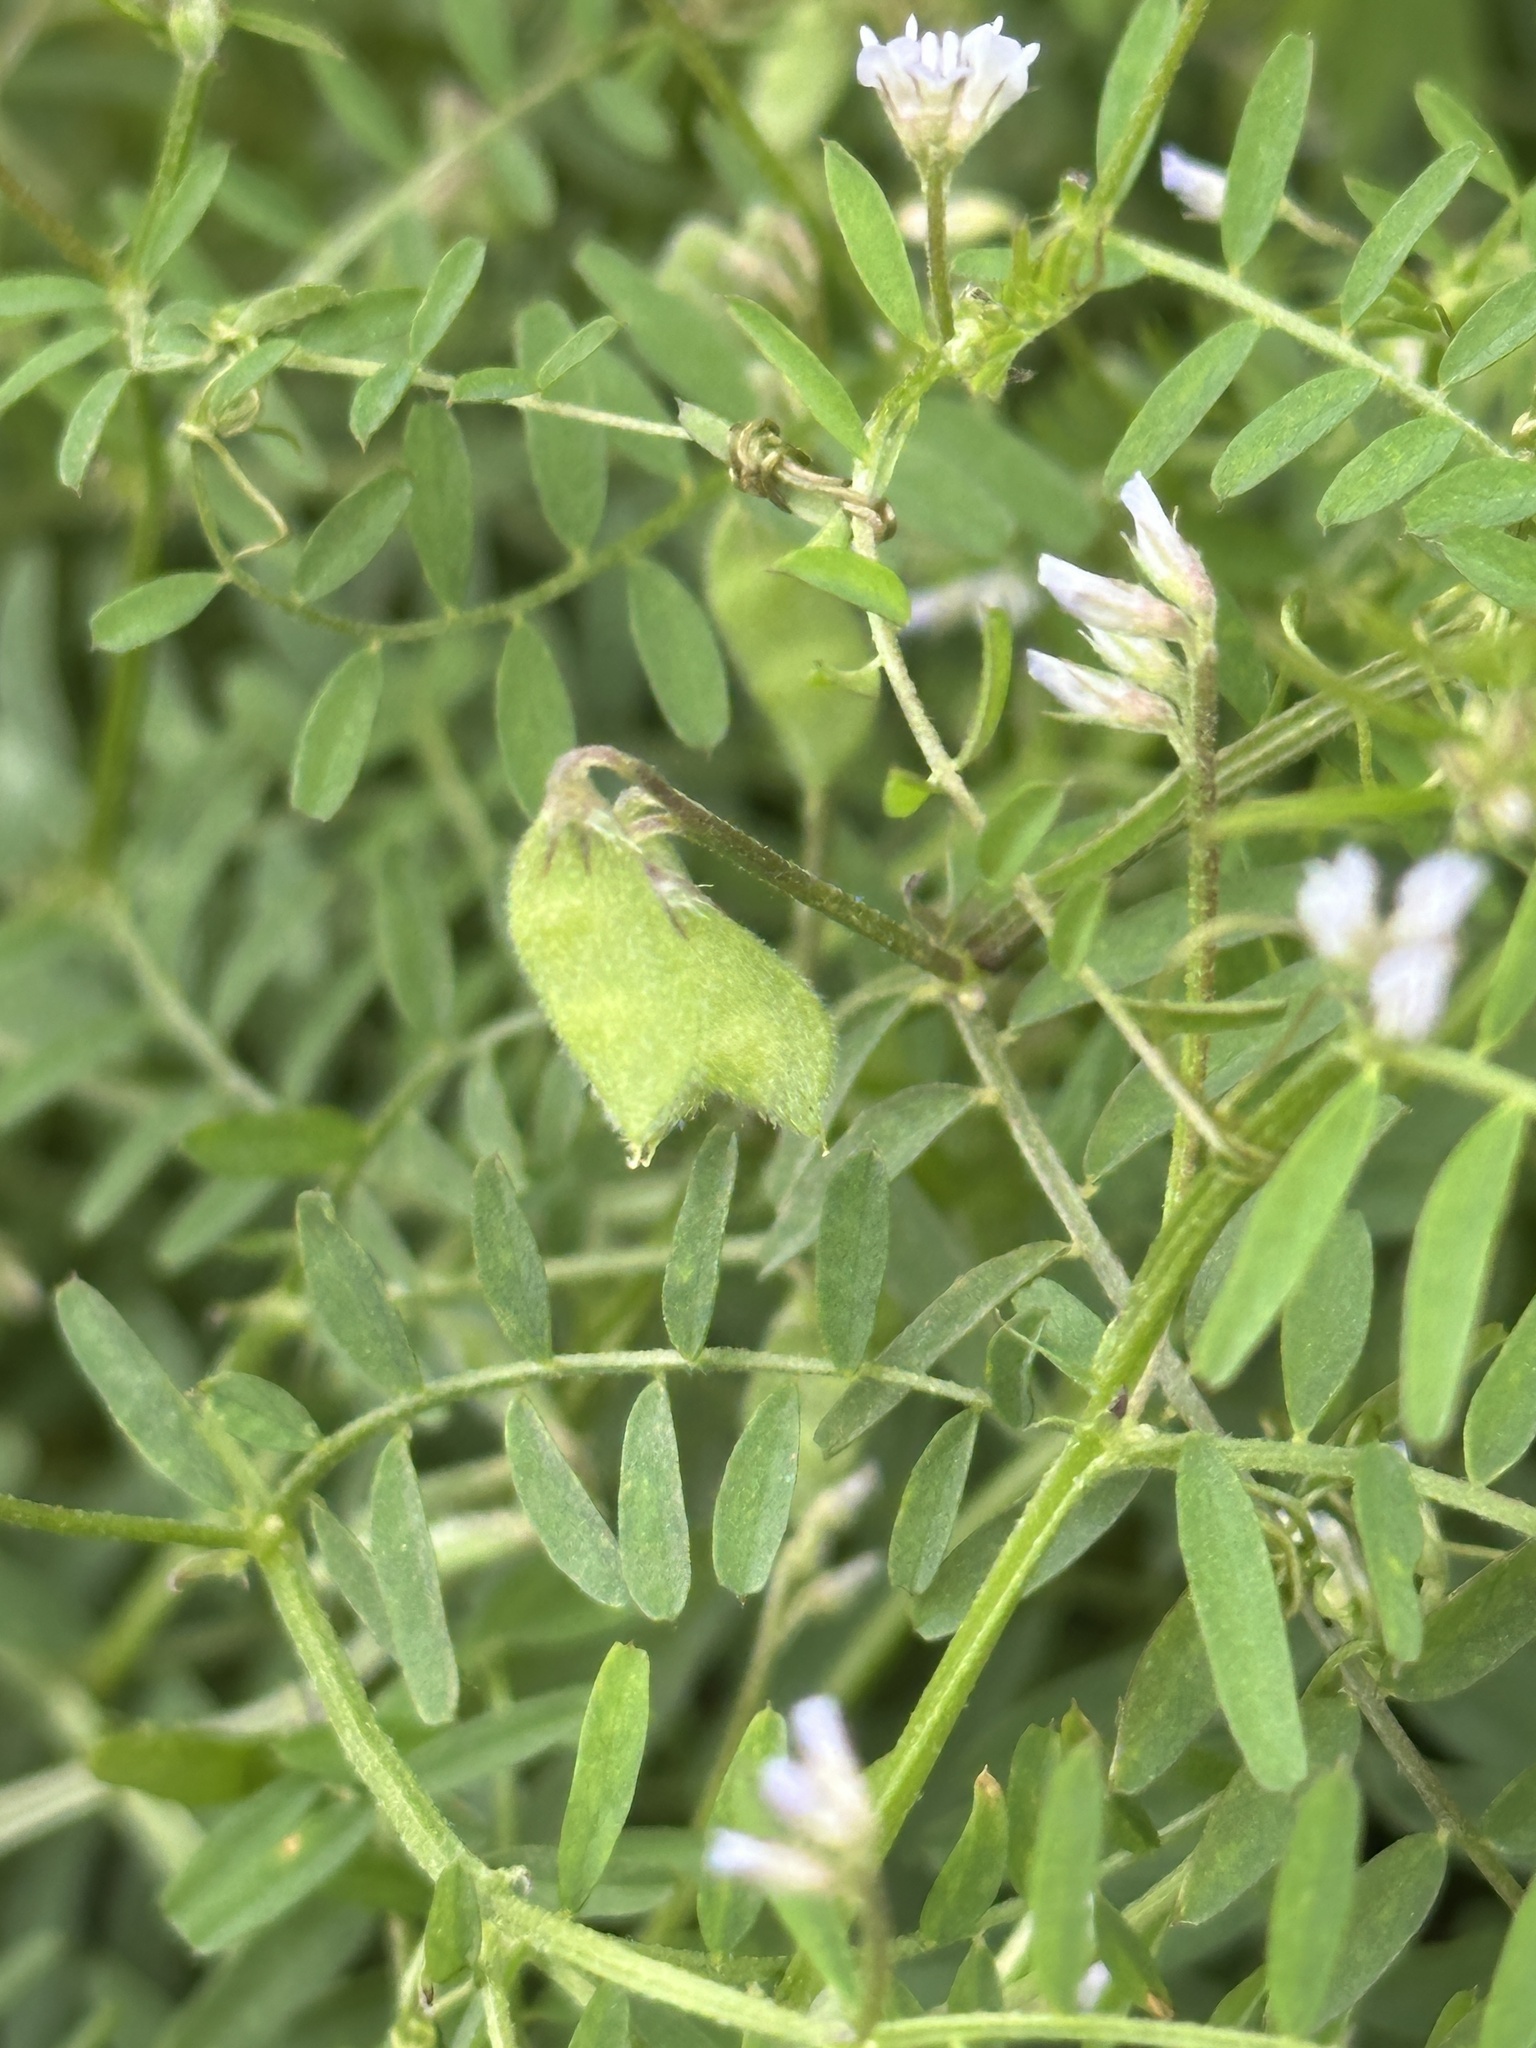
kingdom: Plantae
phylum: Tracheophyta
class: Magnoliopsida
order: Fabales
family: Fabaceae
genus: Vicia
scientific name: Vicia hirsuta
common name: Tiny vetch
